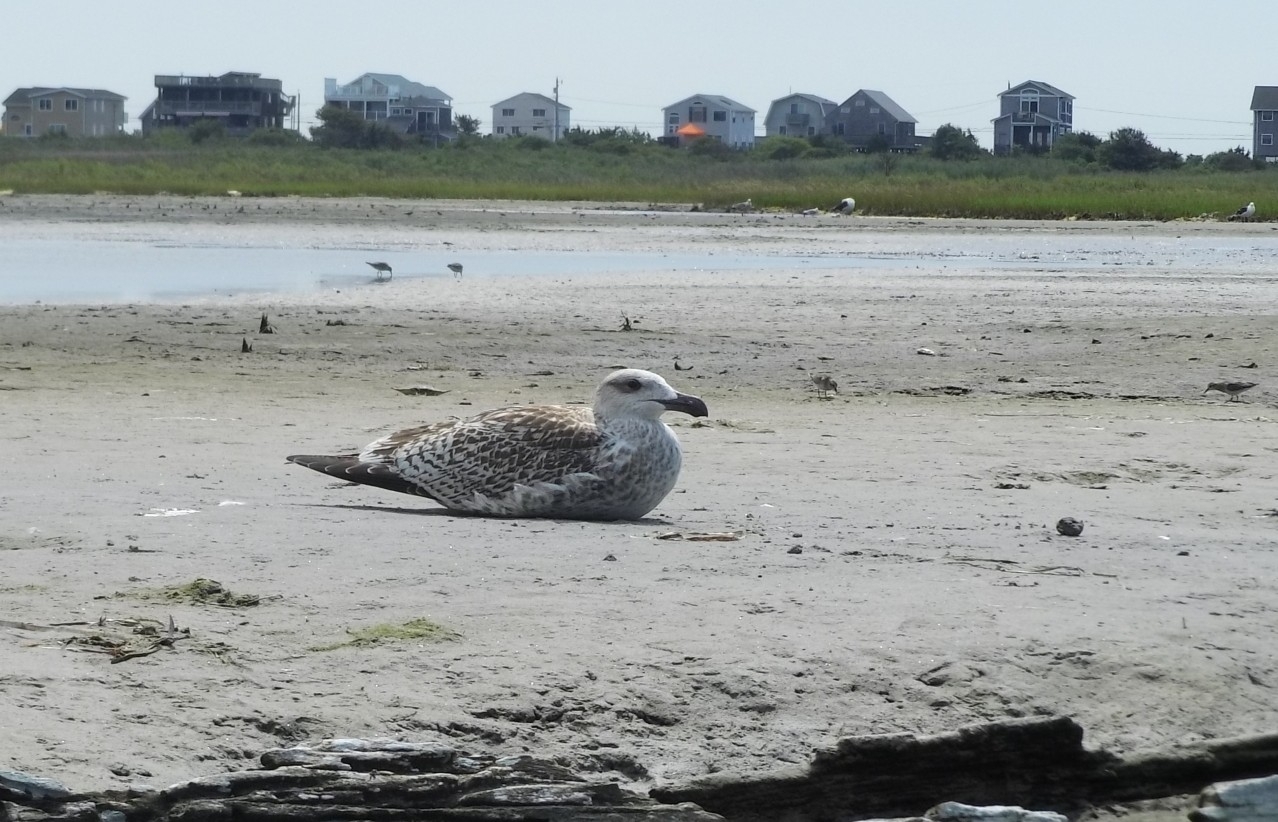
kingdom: Animalia
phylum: Chordata
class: Aves
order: Charadriiformes
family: Laridae
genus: Larus
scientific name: Larus marinus
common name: Great black-backed gull
